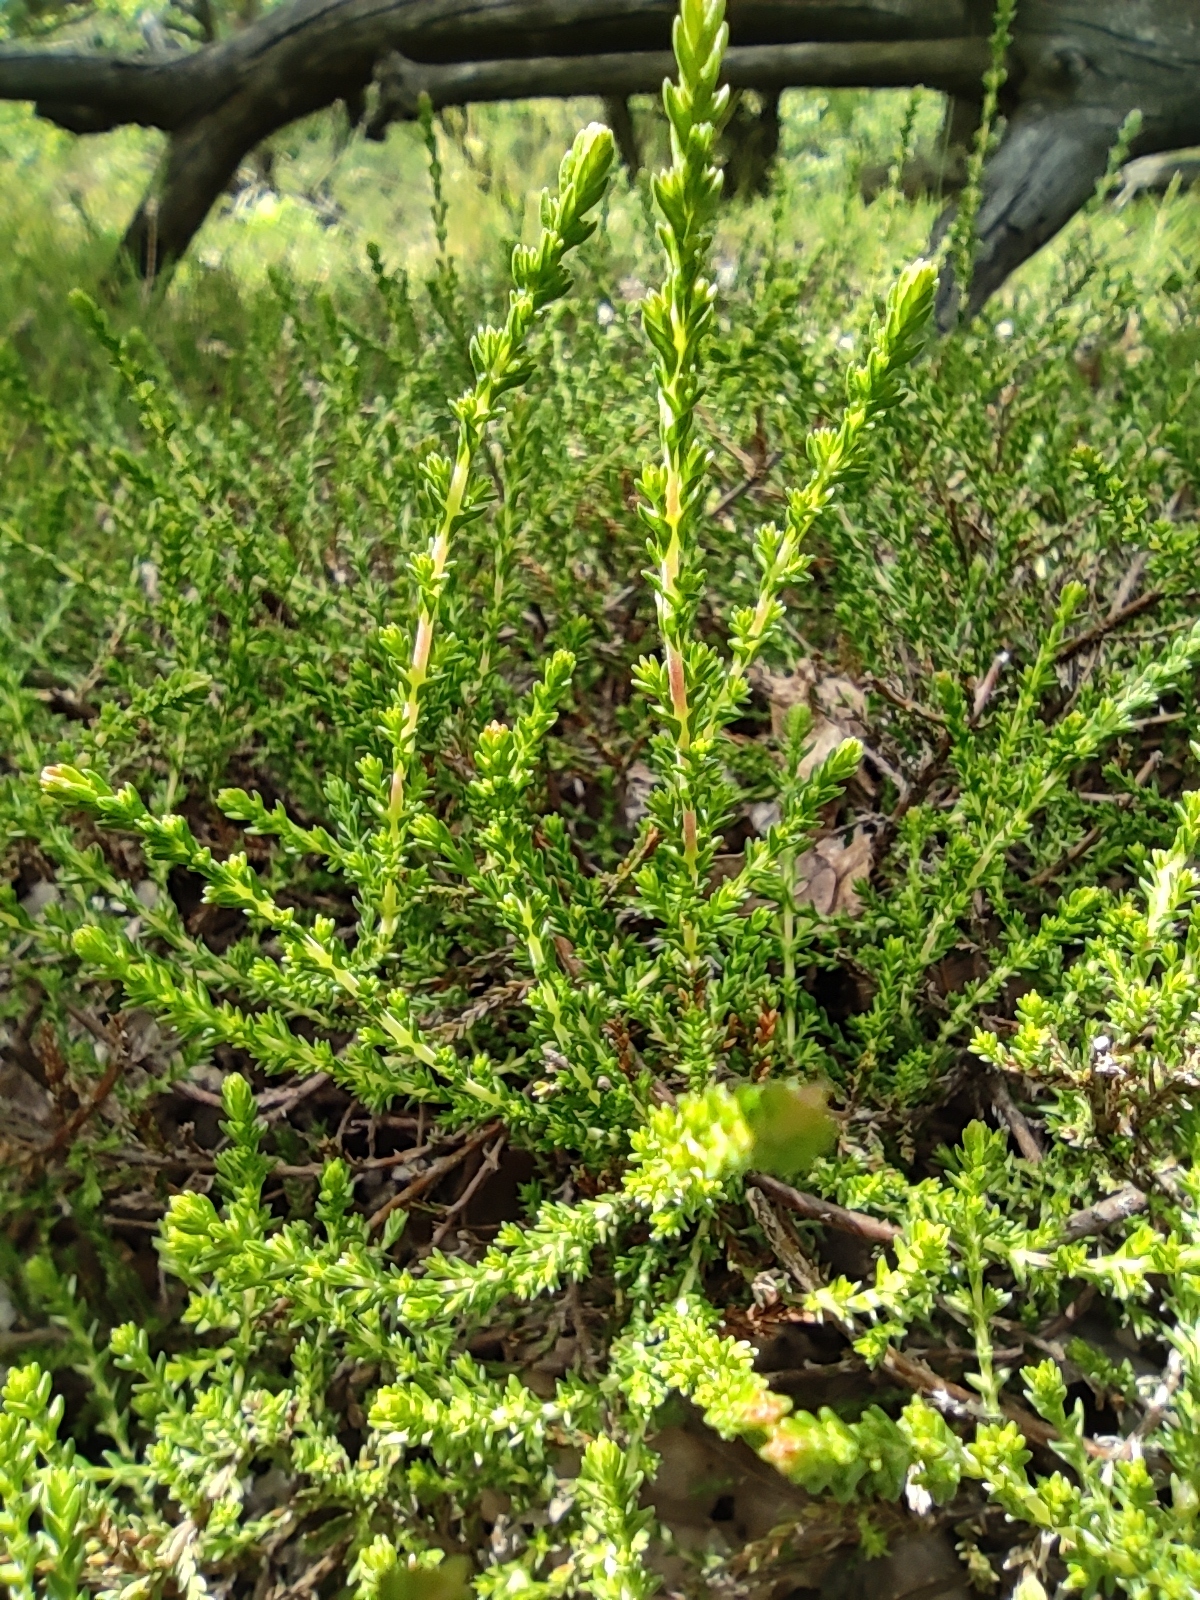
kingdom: Plantae
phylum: Tracheophyta
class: Magnoliopsida
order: Ericales
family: Ericaceae
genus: Calluna
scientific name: Calluna vulgaris
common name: Heather
